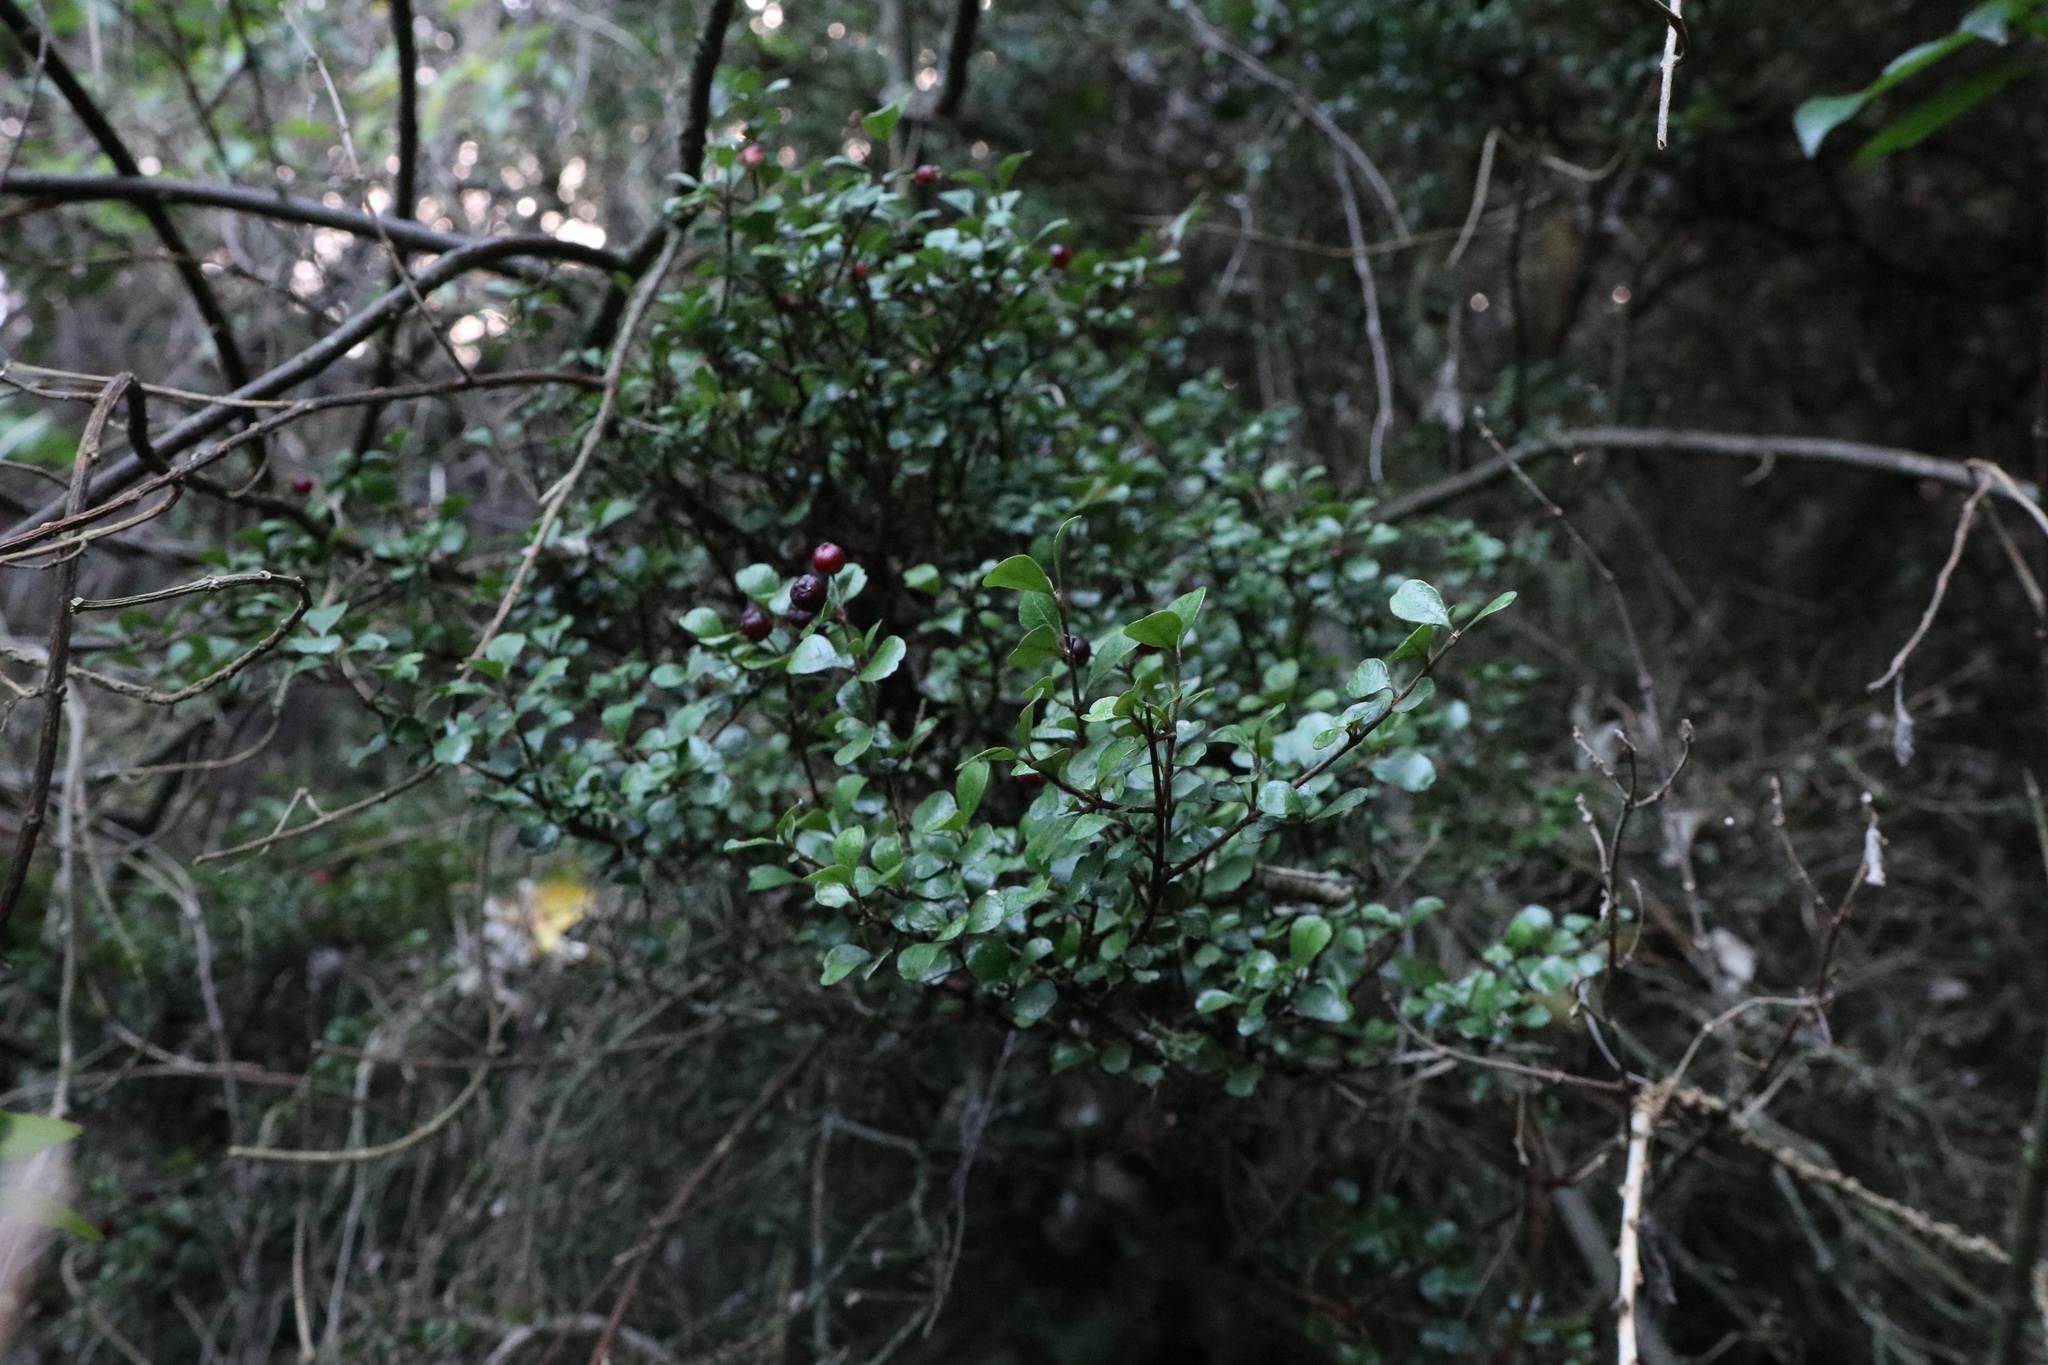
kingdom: Plantae
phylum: Tracheophyta
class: Magnoliopsida
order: Myrtales
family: Myrtaceae
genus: Lophomyrtus
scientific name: Lophomyrtus obcordata
